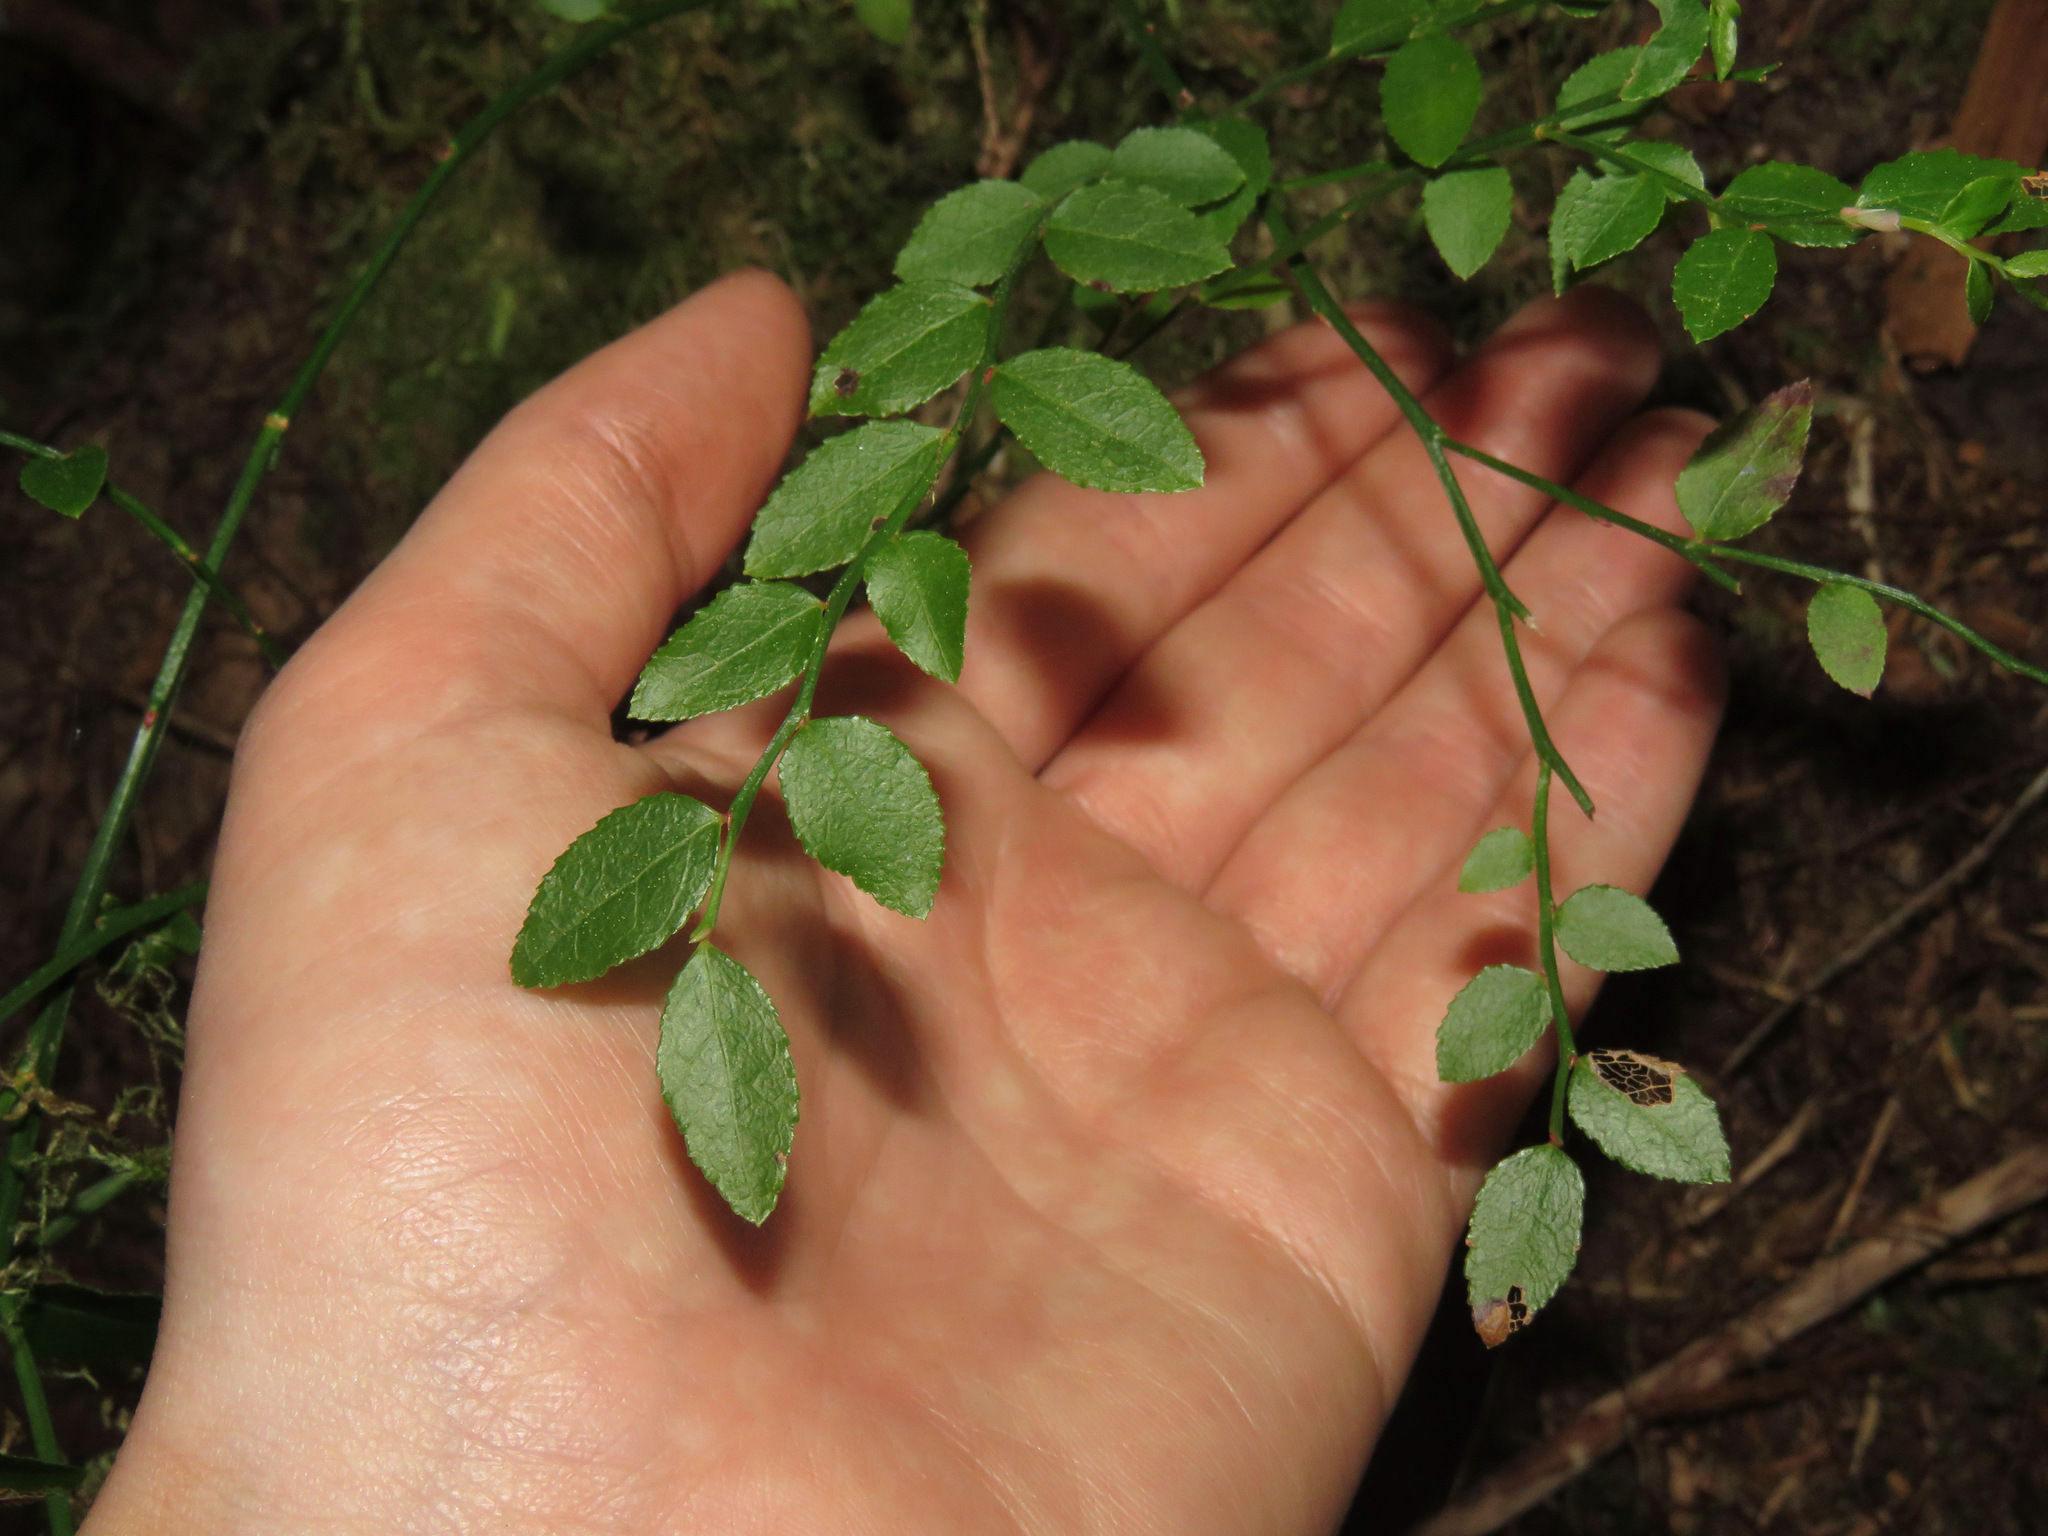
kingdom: Plantae
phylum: Tracheophyta
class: Magnoliopsida
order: Ericales
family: Ericaceae
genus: Vaccinium
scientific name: Vaccinium parvifolium
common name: Red-huckleberry
